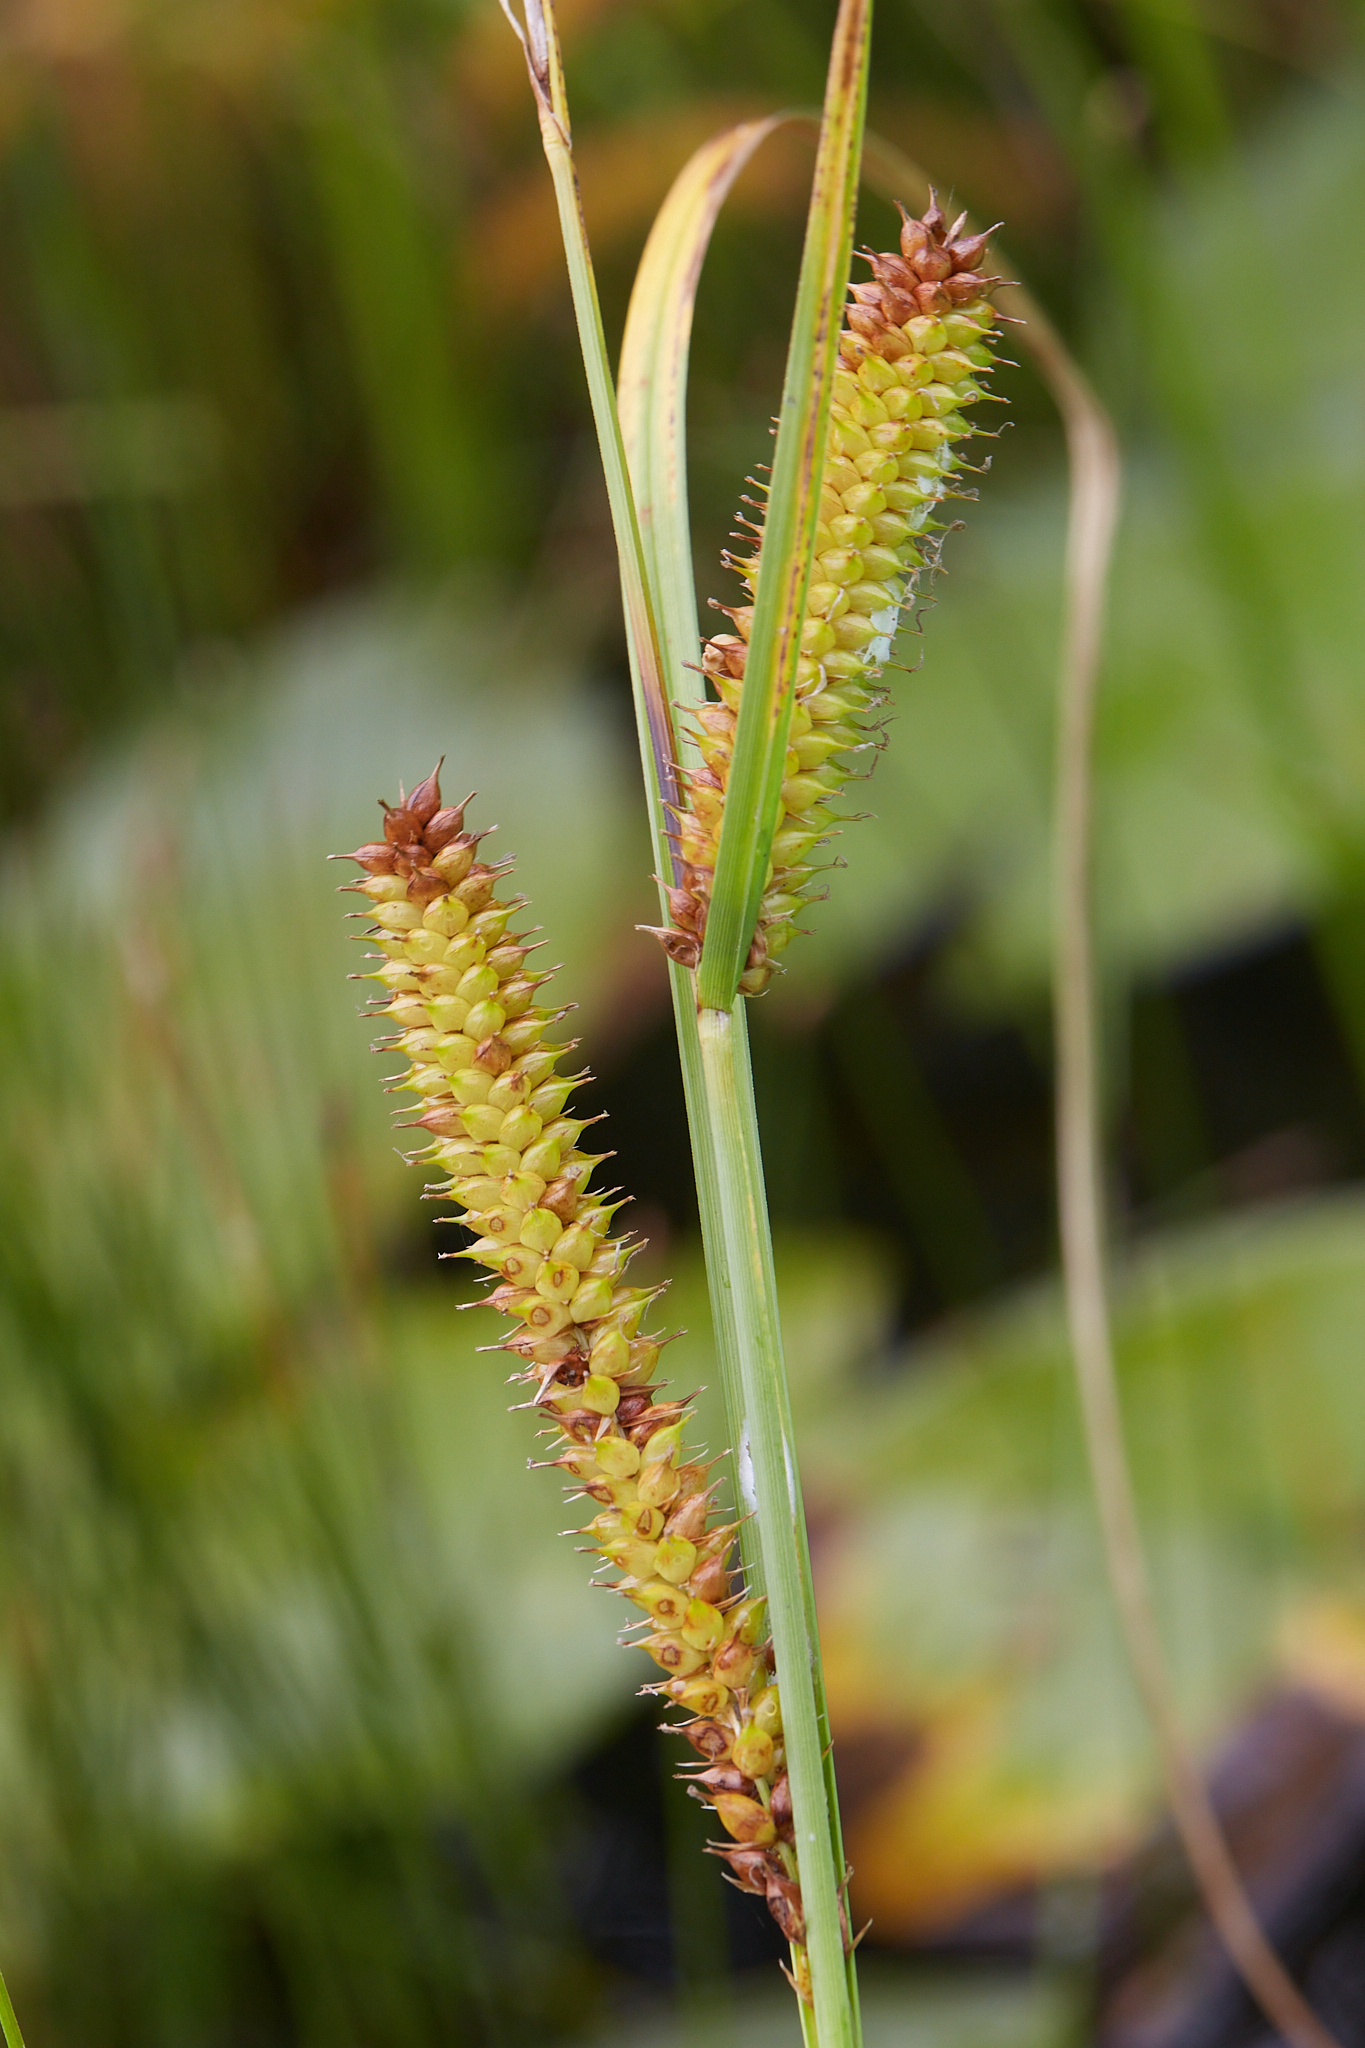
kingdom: Plantae
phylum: Tracheophyta
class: Liliopsida
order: Poales
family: Cyperaceae
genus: Carex
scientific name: Carex utriculata
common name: Beaked sedge
